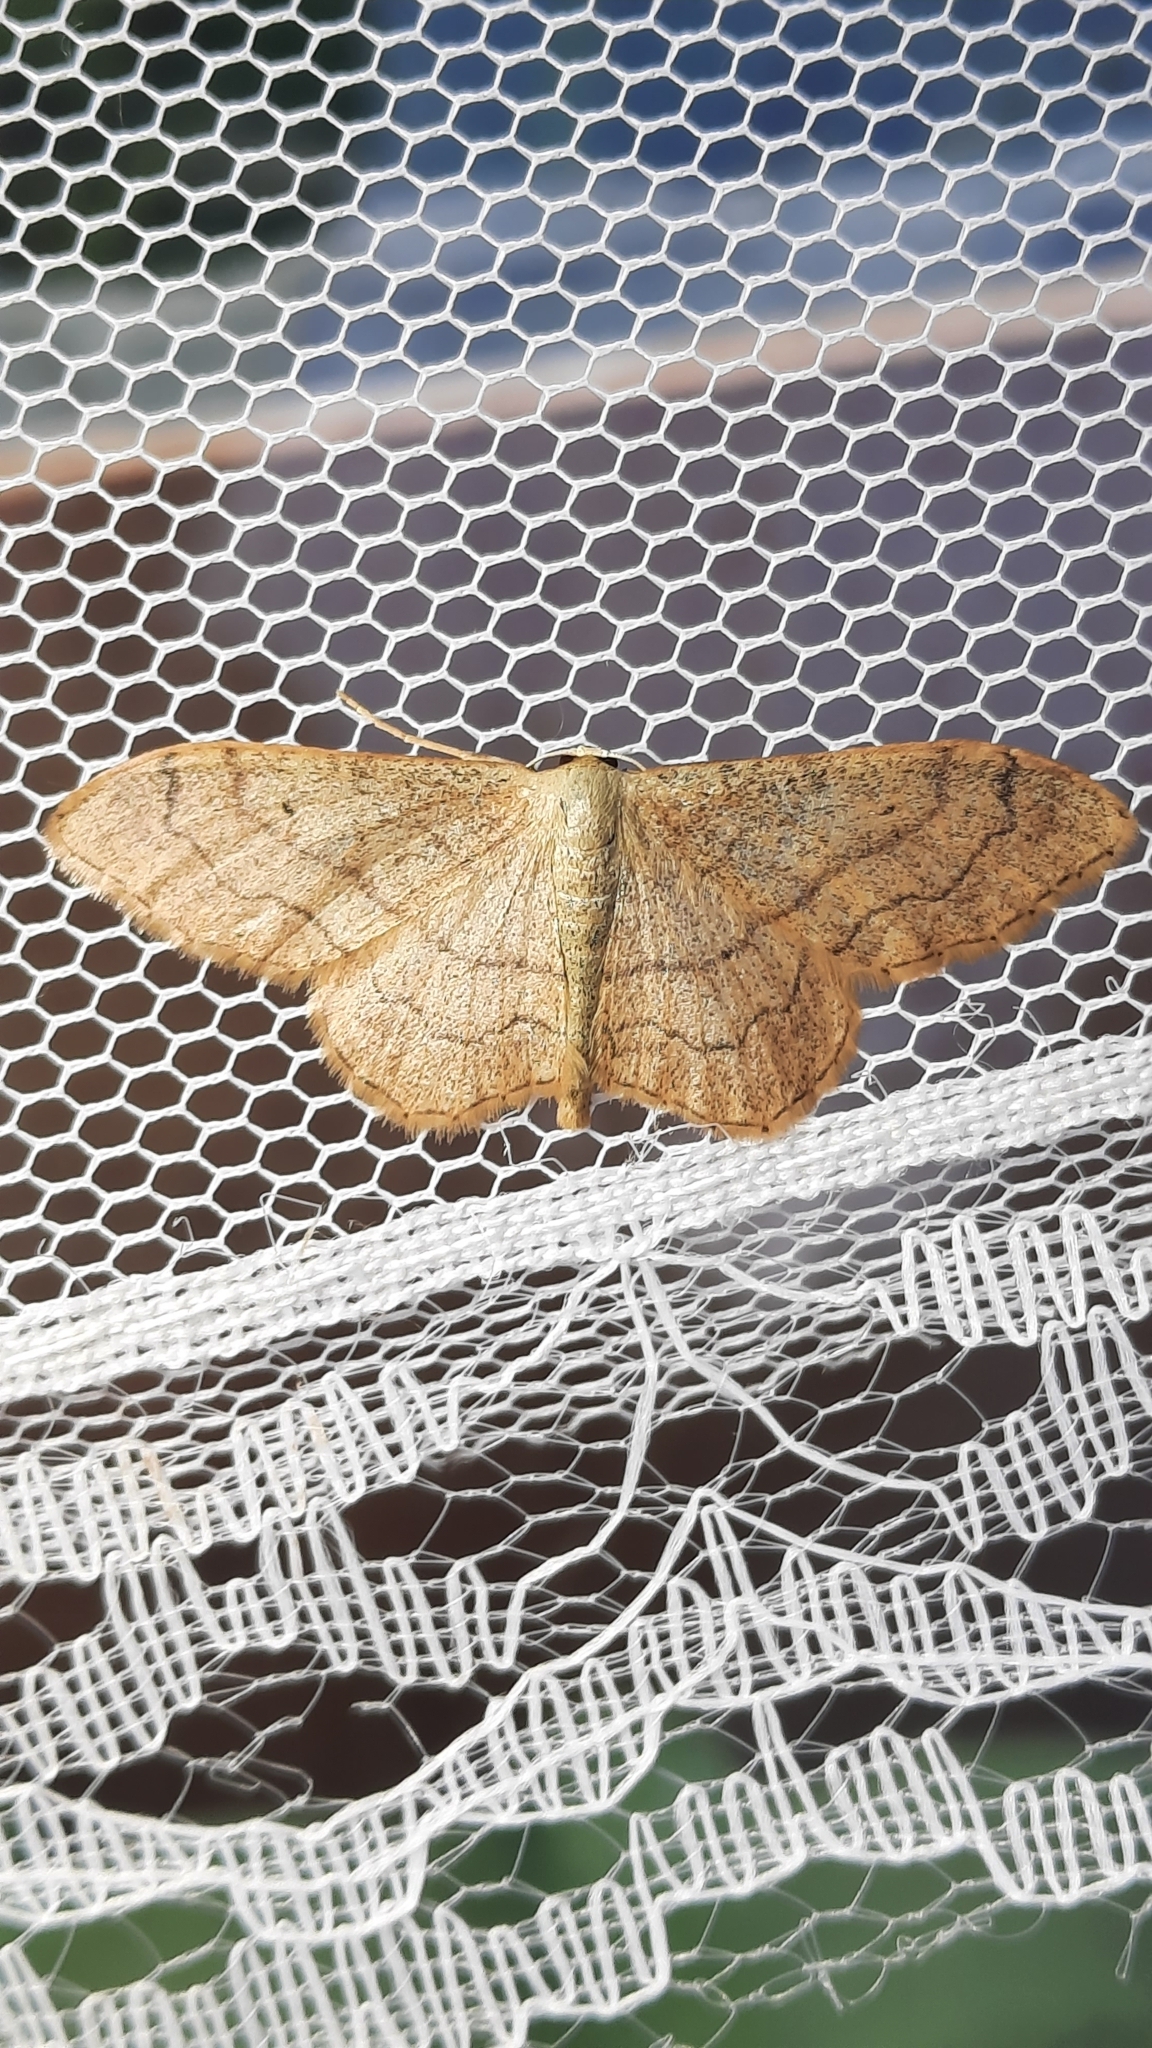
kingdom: Animalia
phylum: Arthropoda
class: Insecta
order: Lepidoptera
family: Geometridae
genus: Idaea
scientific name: Idaea aversata
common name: Riband wave
